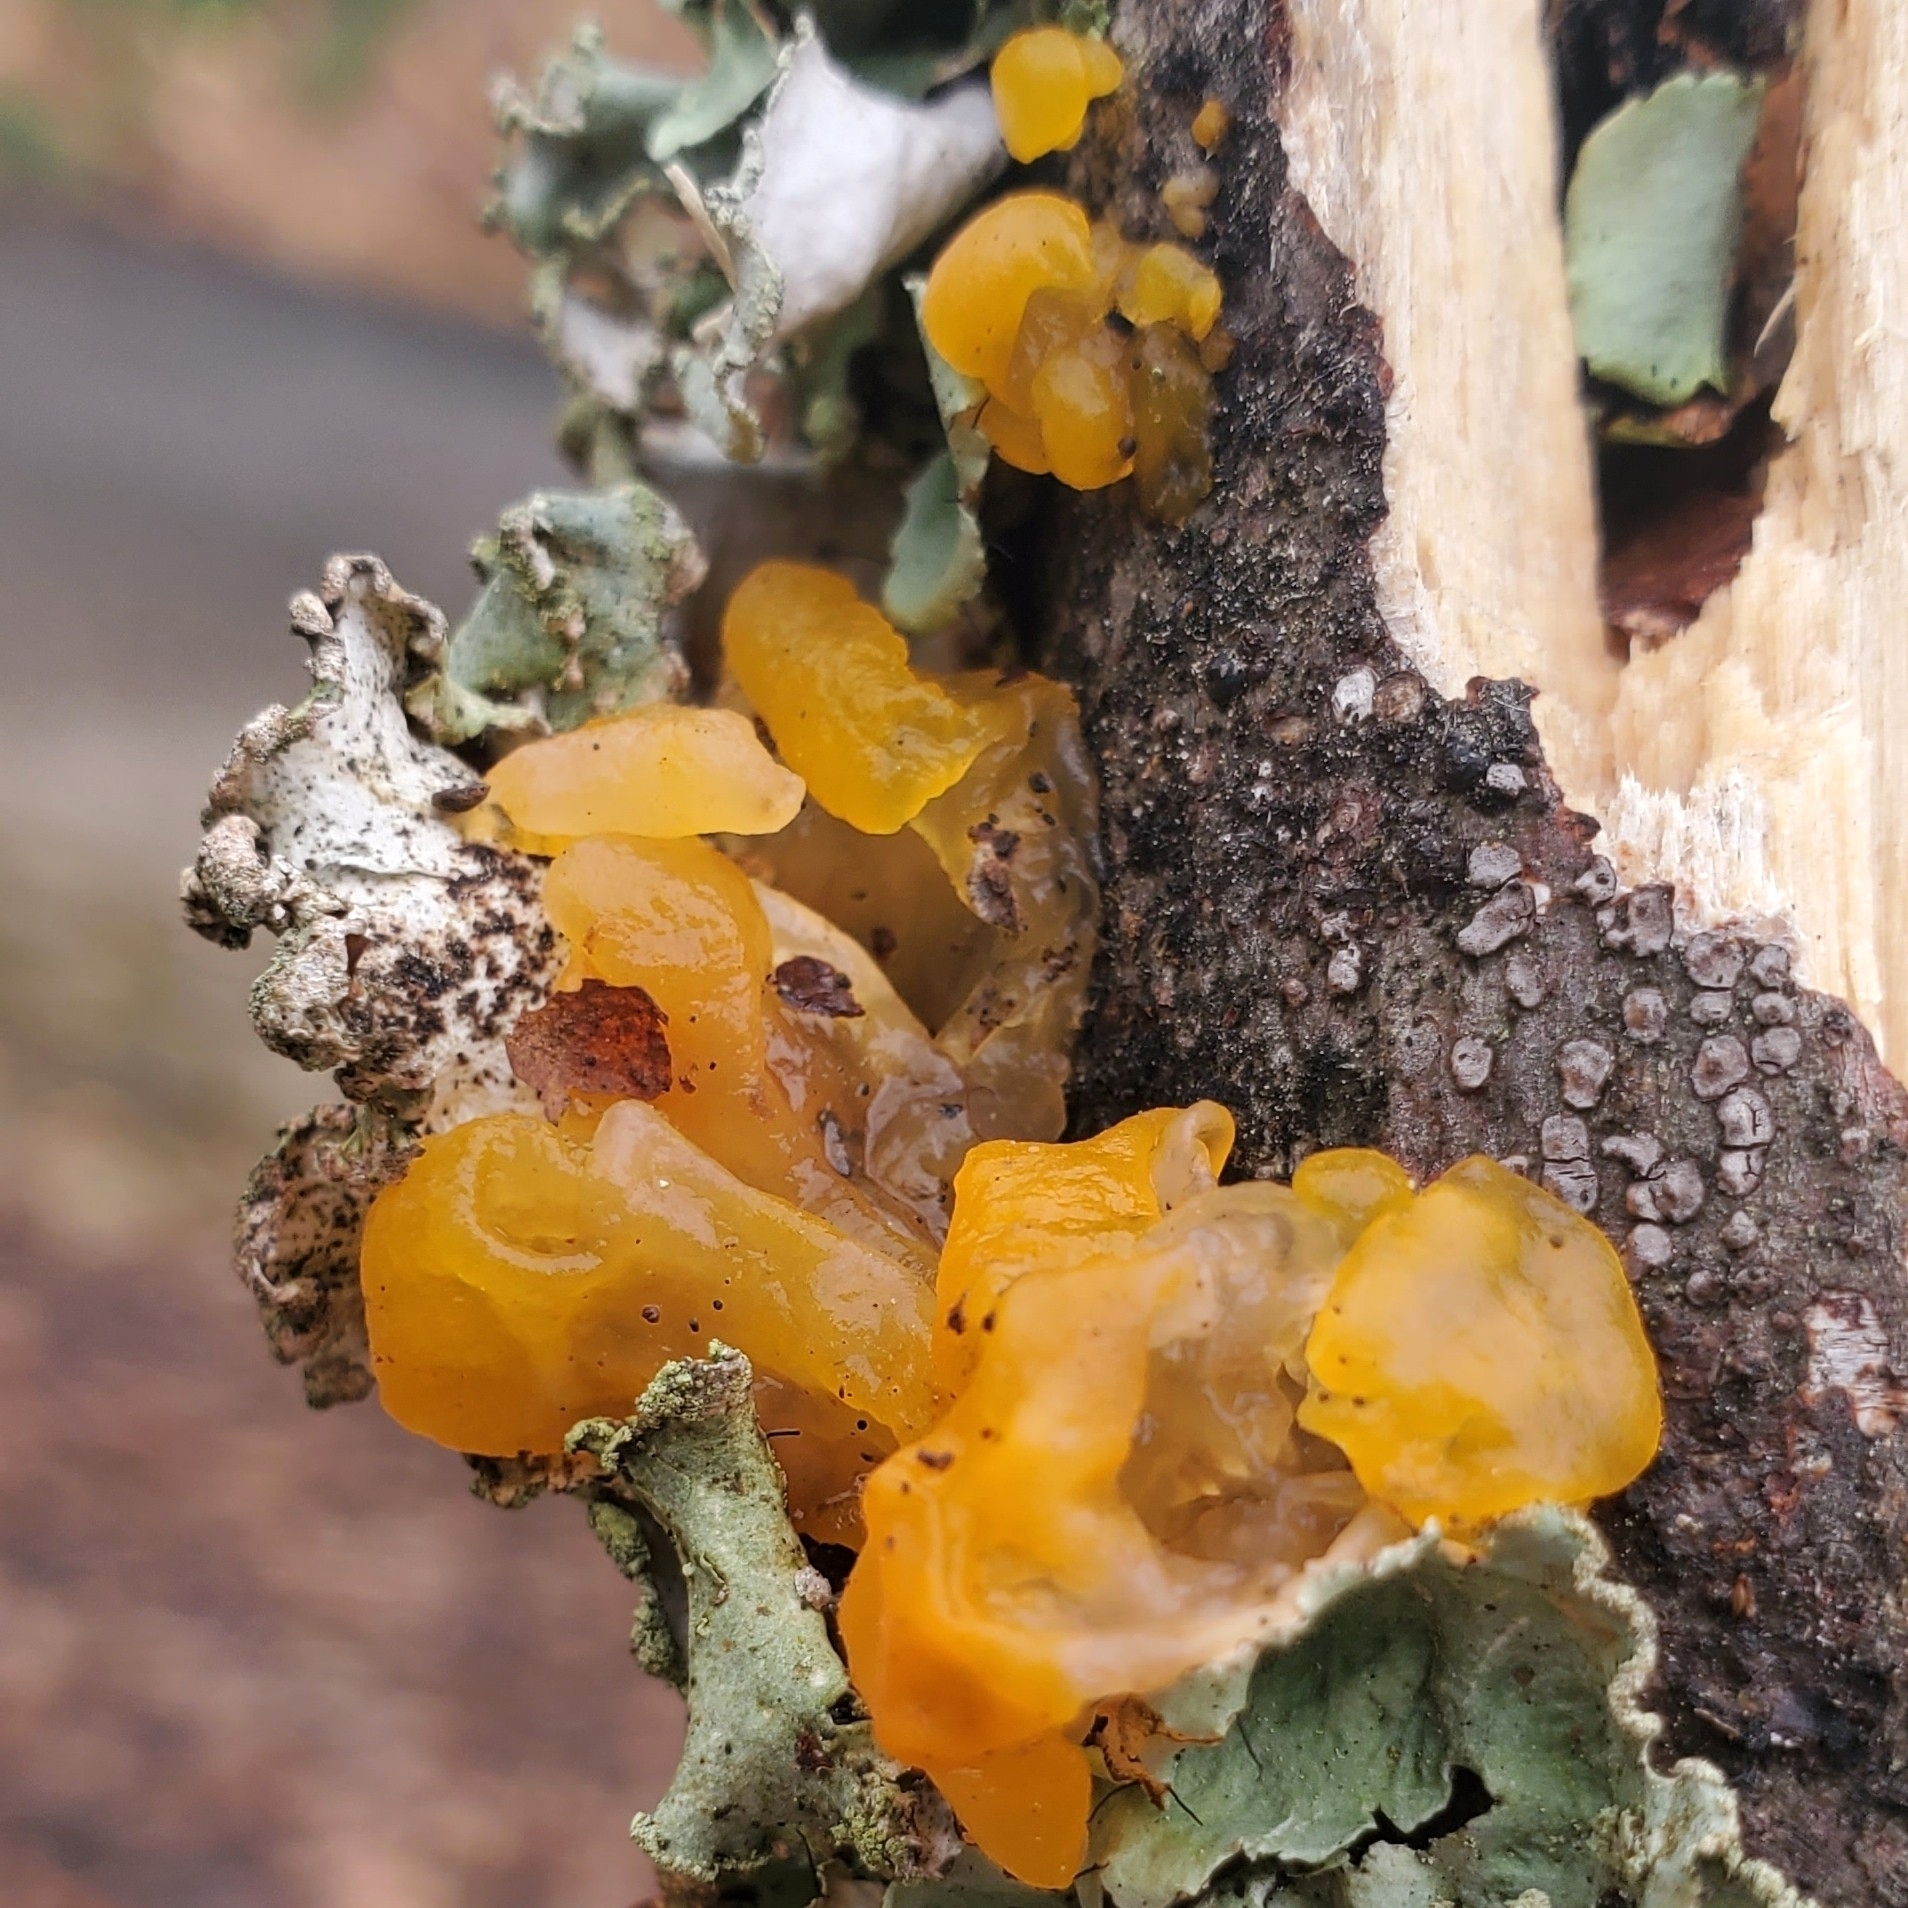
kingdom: Fungi
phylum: Basidiomycota
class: Tremellomycetes
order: Tremellales
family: Tremellaceae
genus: Tremella
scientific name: Tremella mesenterica
